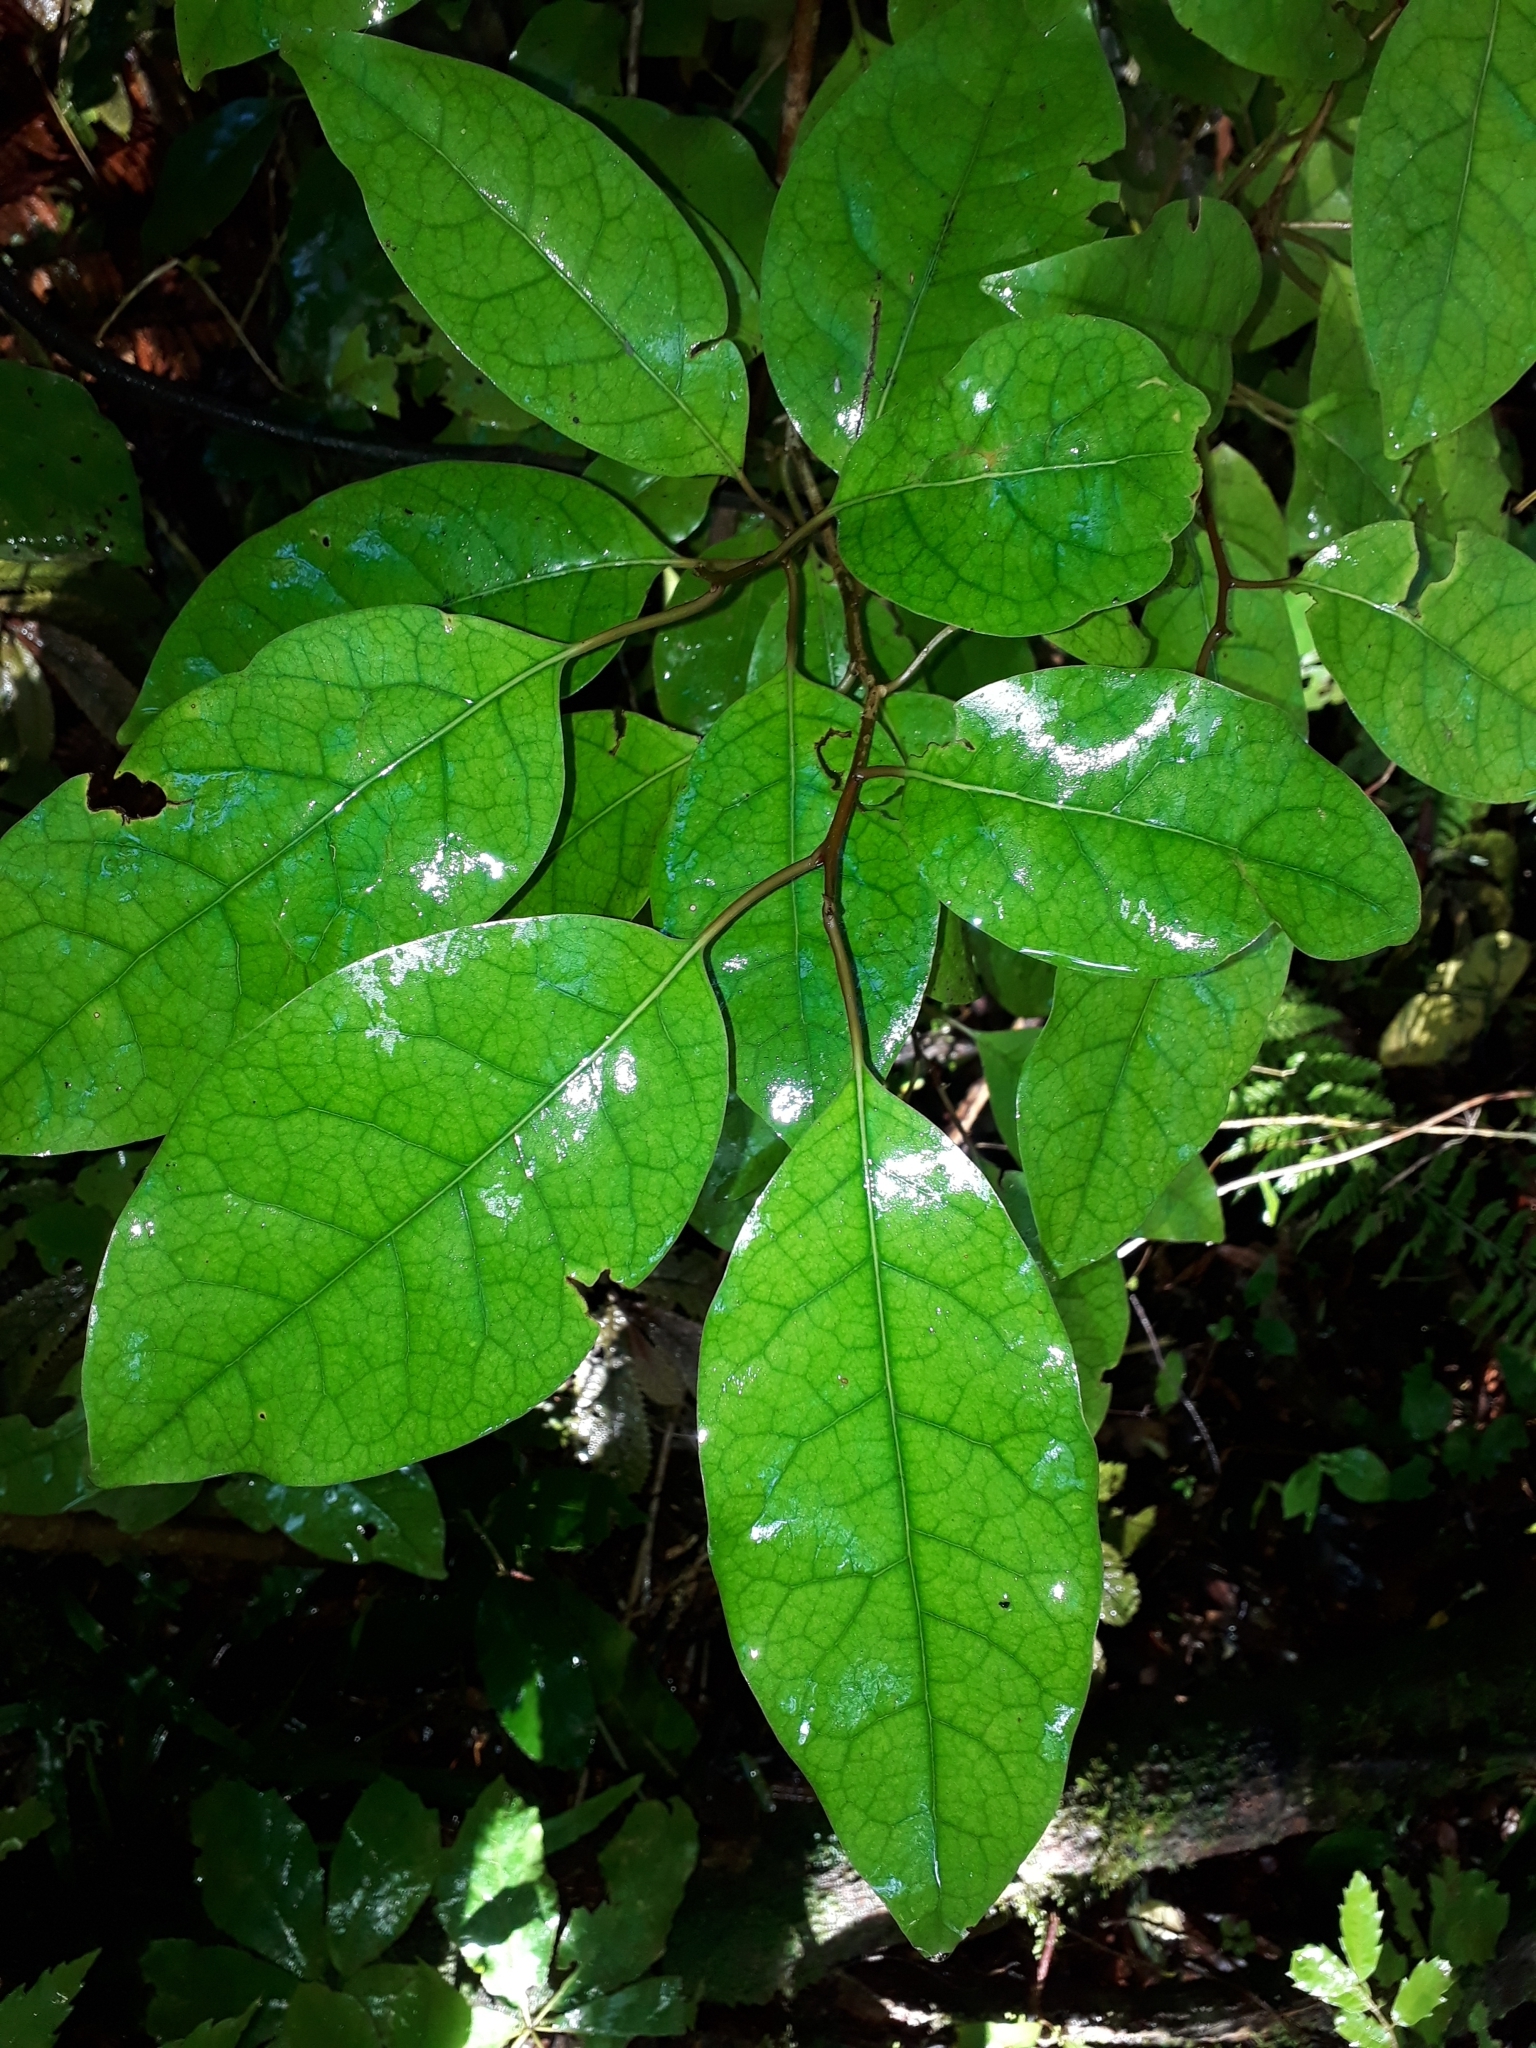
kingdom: Plantae
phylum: Tracheophyta
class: Magnoliopsida
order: Laurales
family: Lauraceae
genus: Litsea
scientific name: Litsea calicaris
